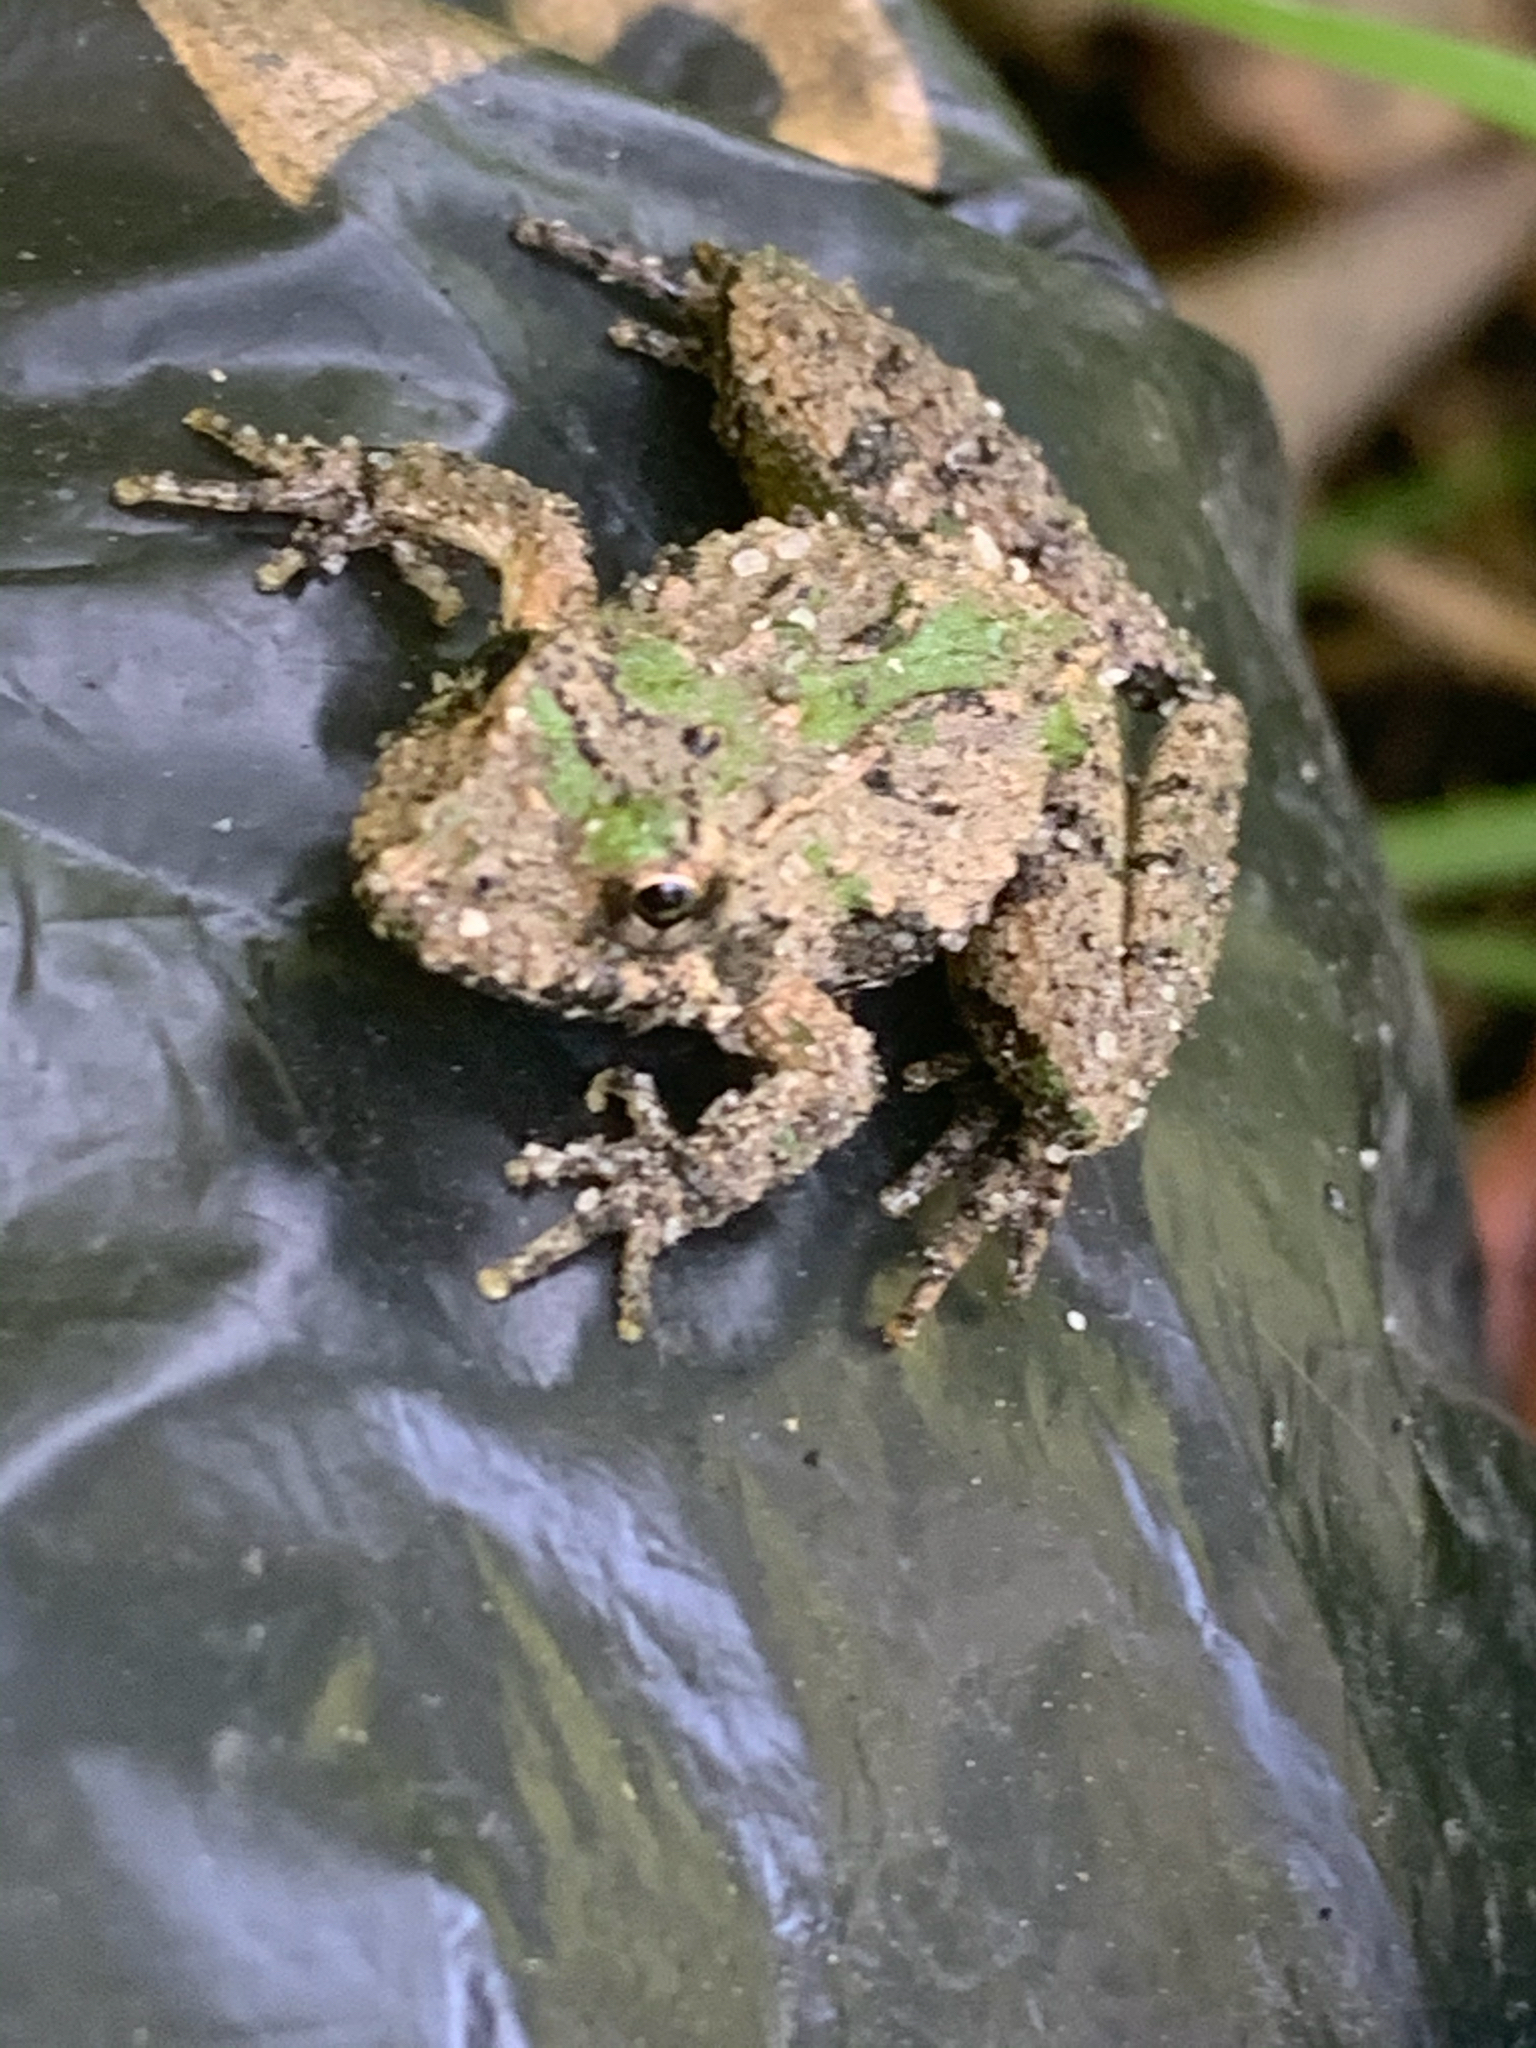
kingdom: Animalia
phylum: Chordata
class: Amphibia
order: Anura
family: Hylidae
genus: Acris
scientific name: Acris crepitans
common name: Northern cricket frog
